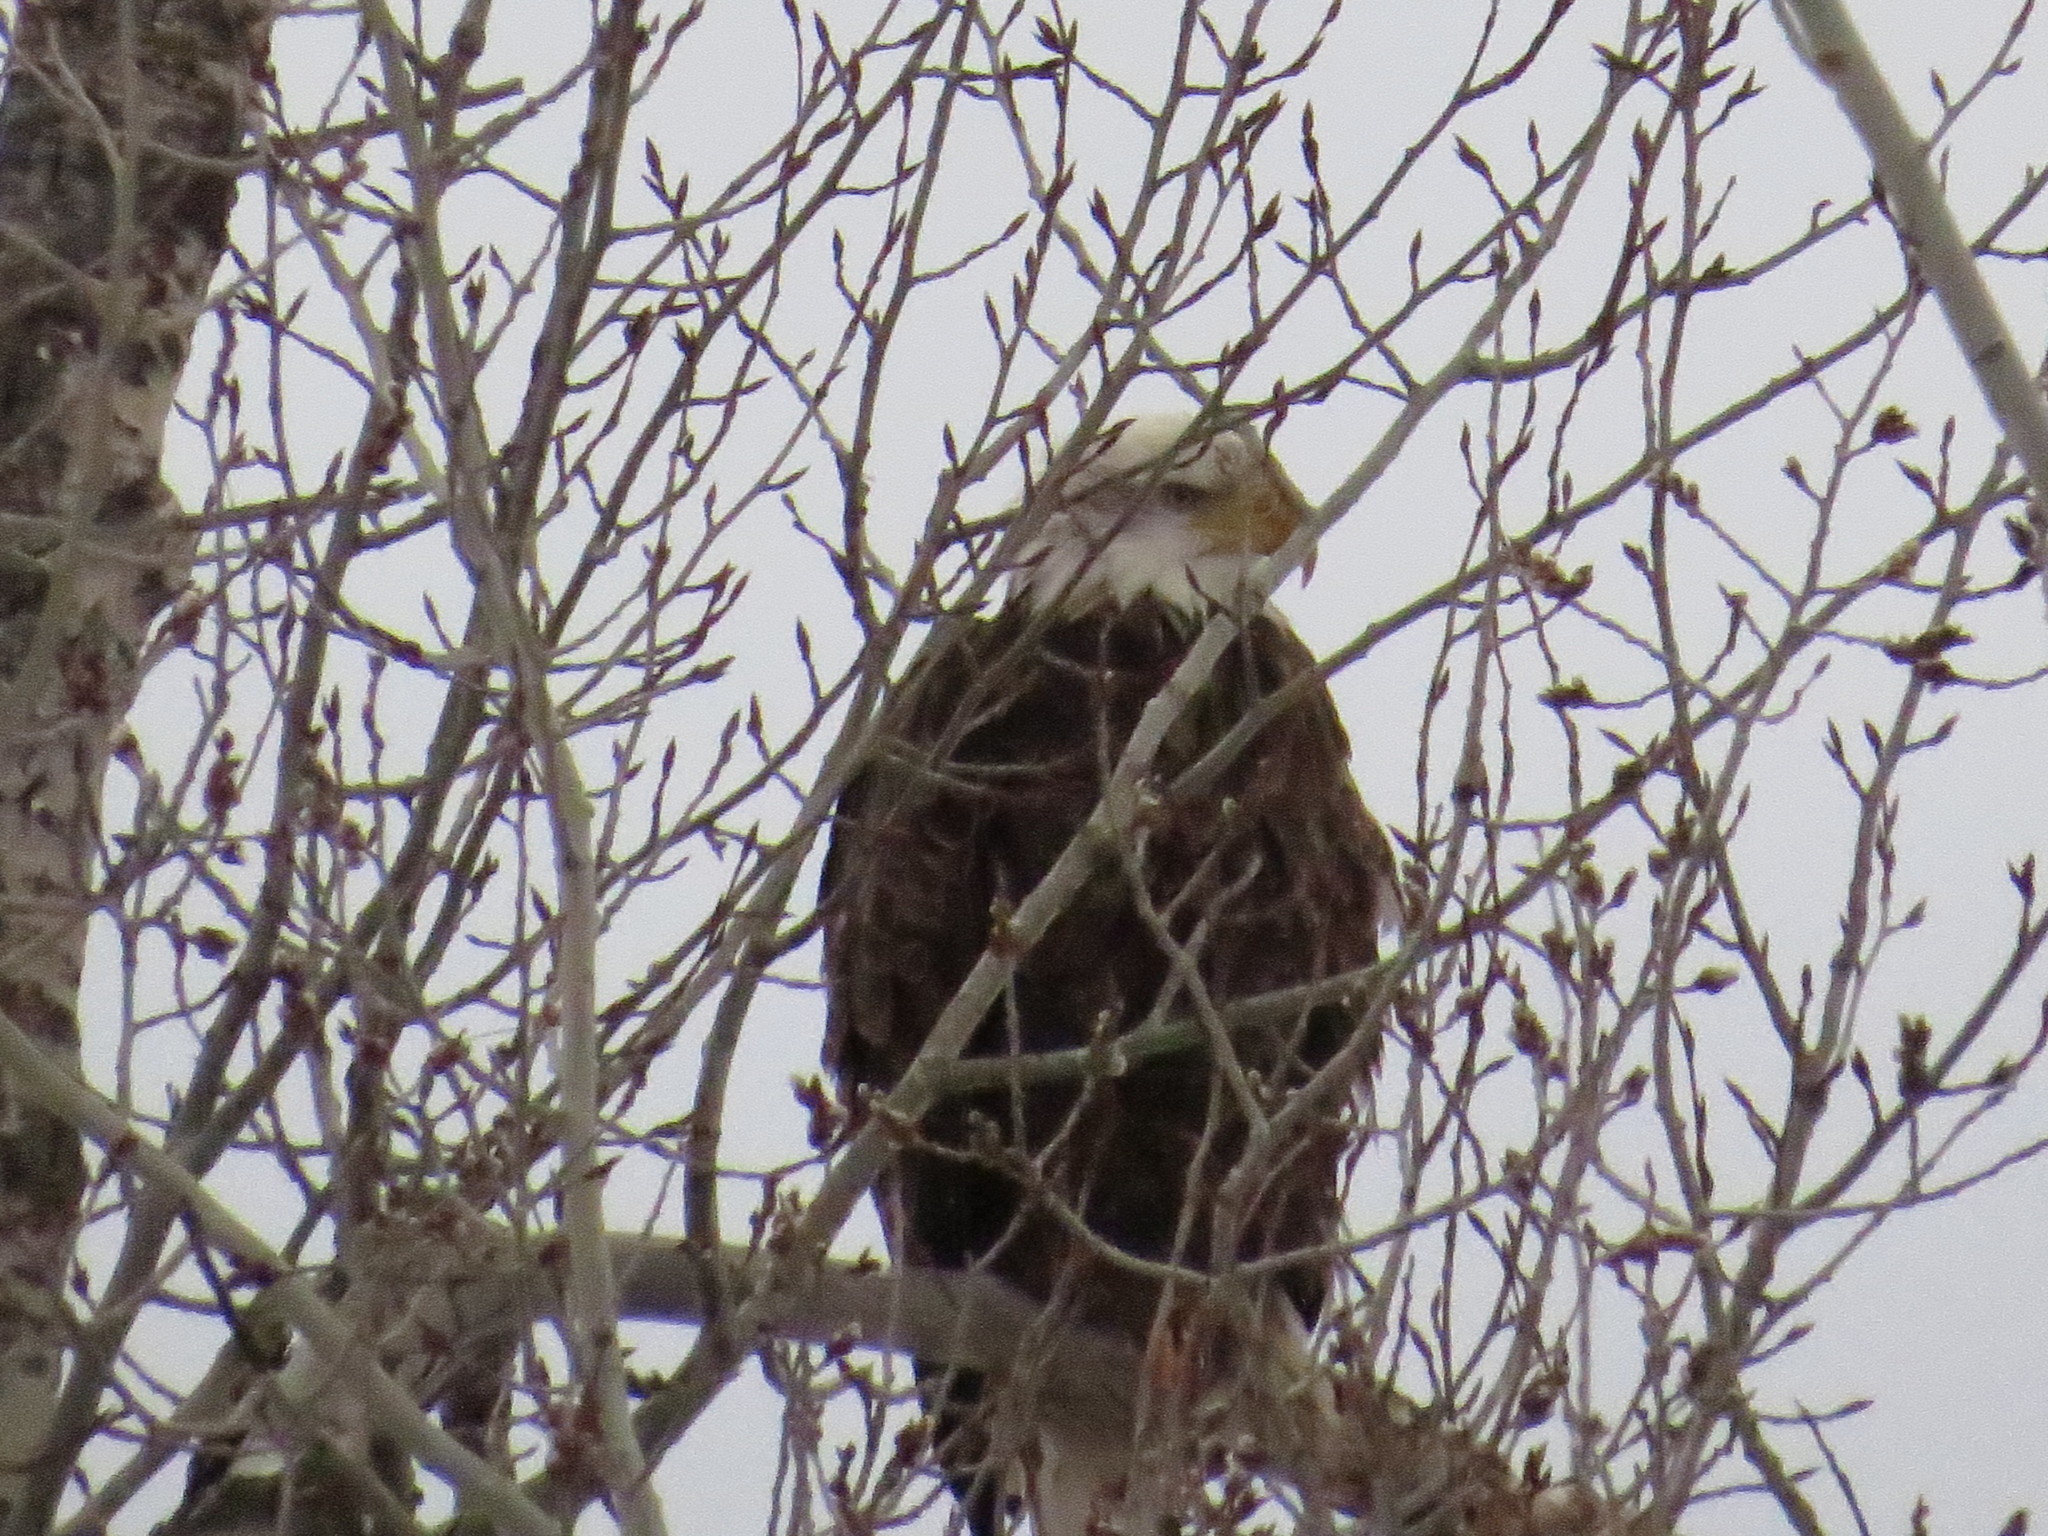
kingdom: Animalia
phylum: Chordata
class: Aves
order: Accipitriformes
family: Accipitridae
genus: Haliaeetus
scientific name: Haliaeetus leucocephalus
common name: Bald eagle
